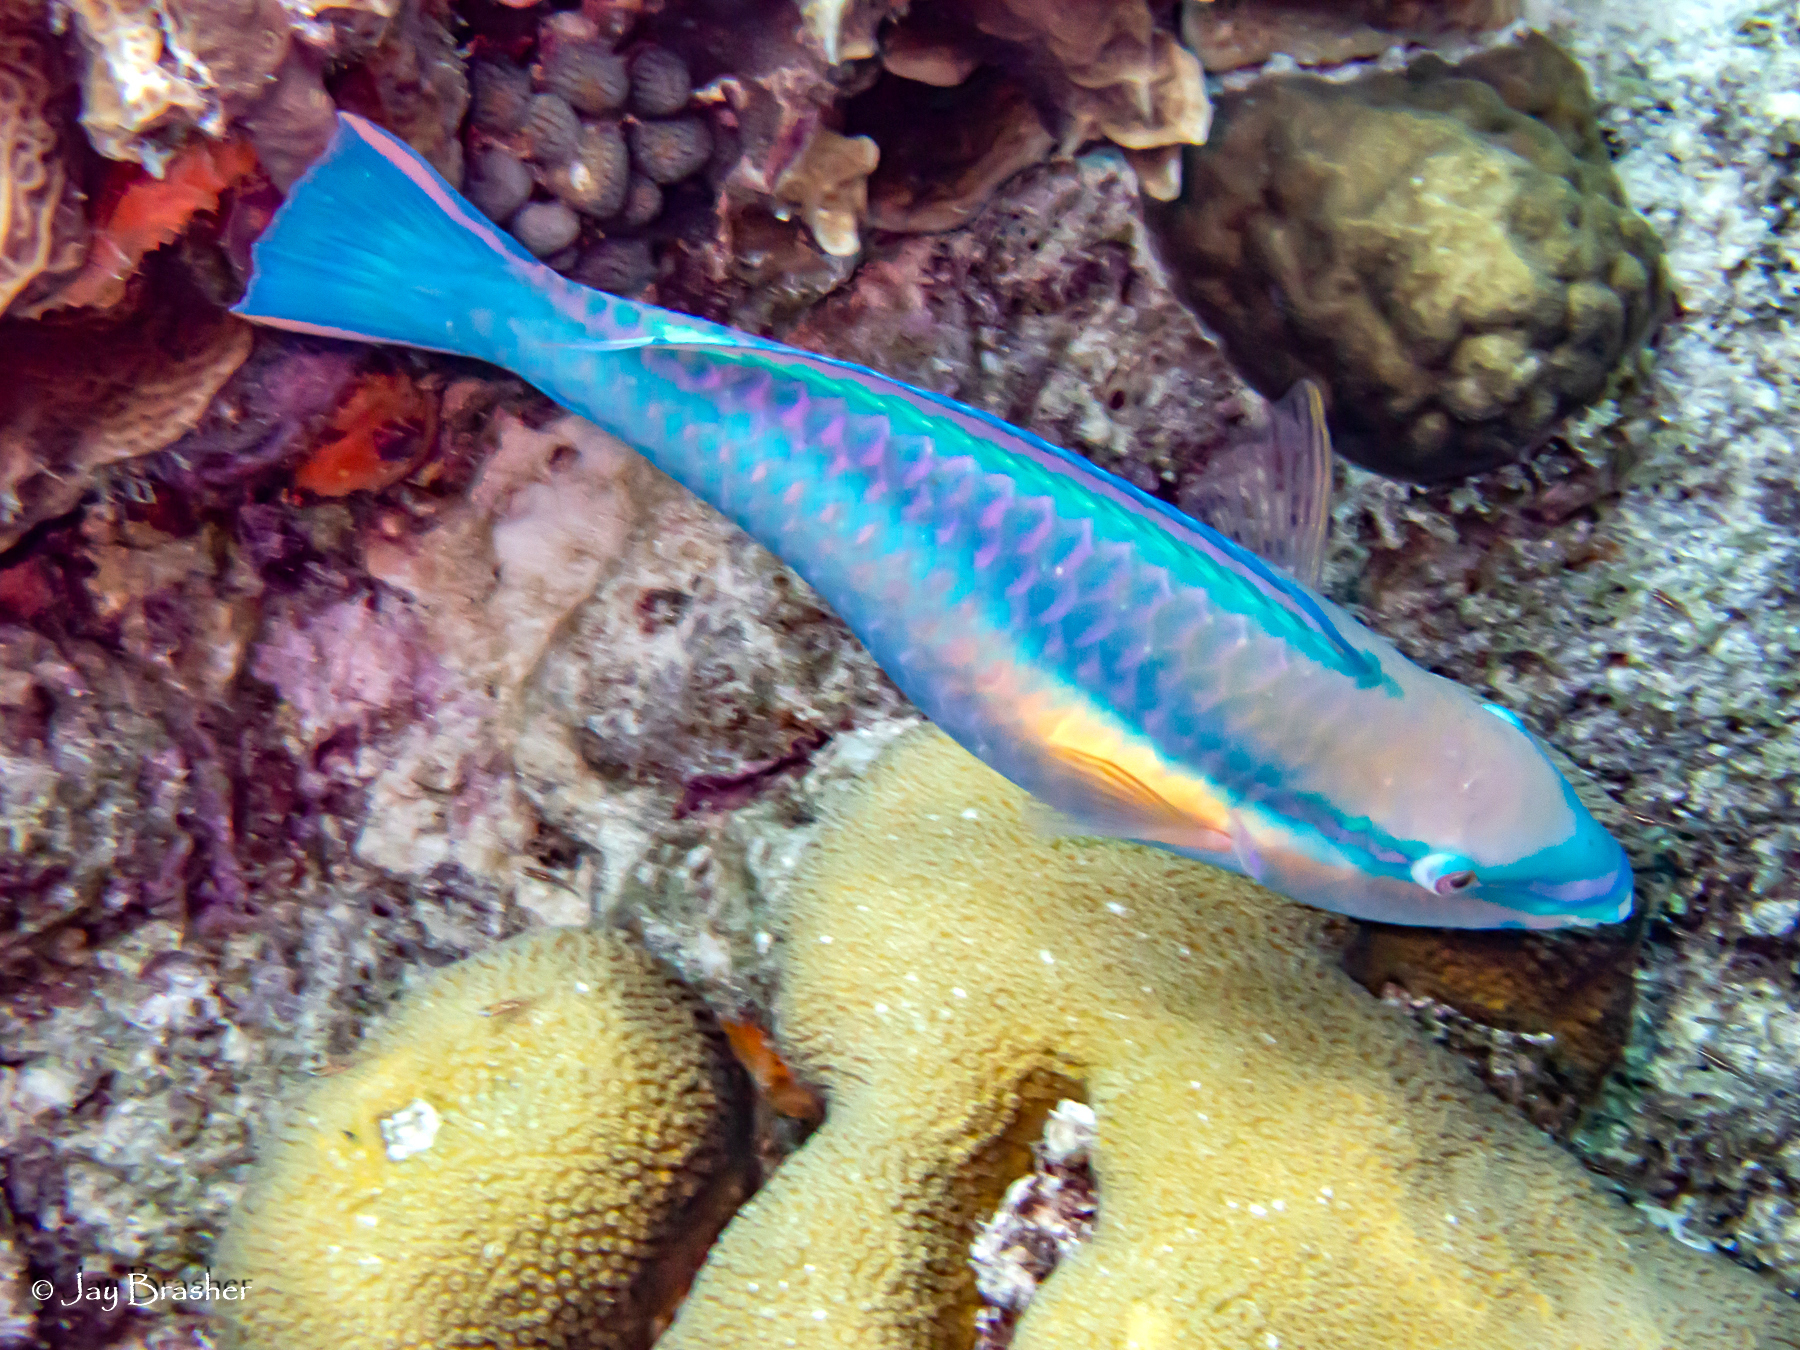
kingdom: Animalia
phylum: Chordata
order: Perciformes
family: Scaridae
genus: Scarus
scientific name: Scarus taeniopterus
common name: Princess parrotfish
